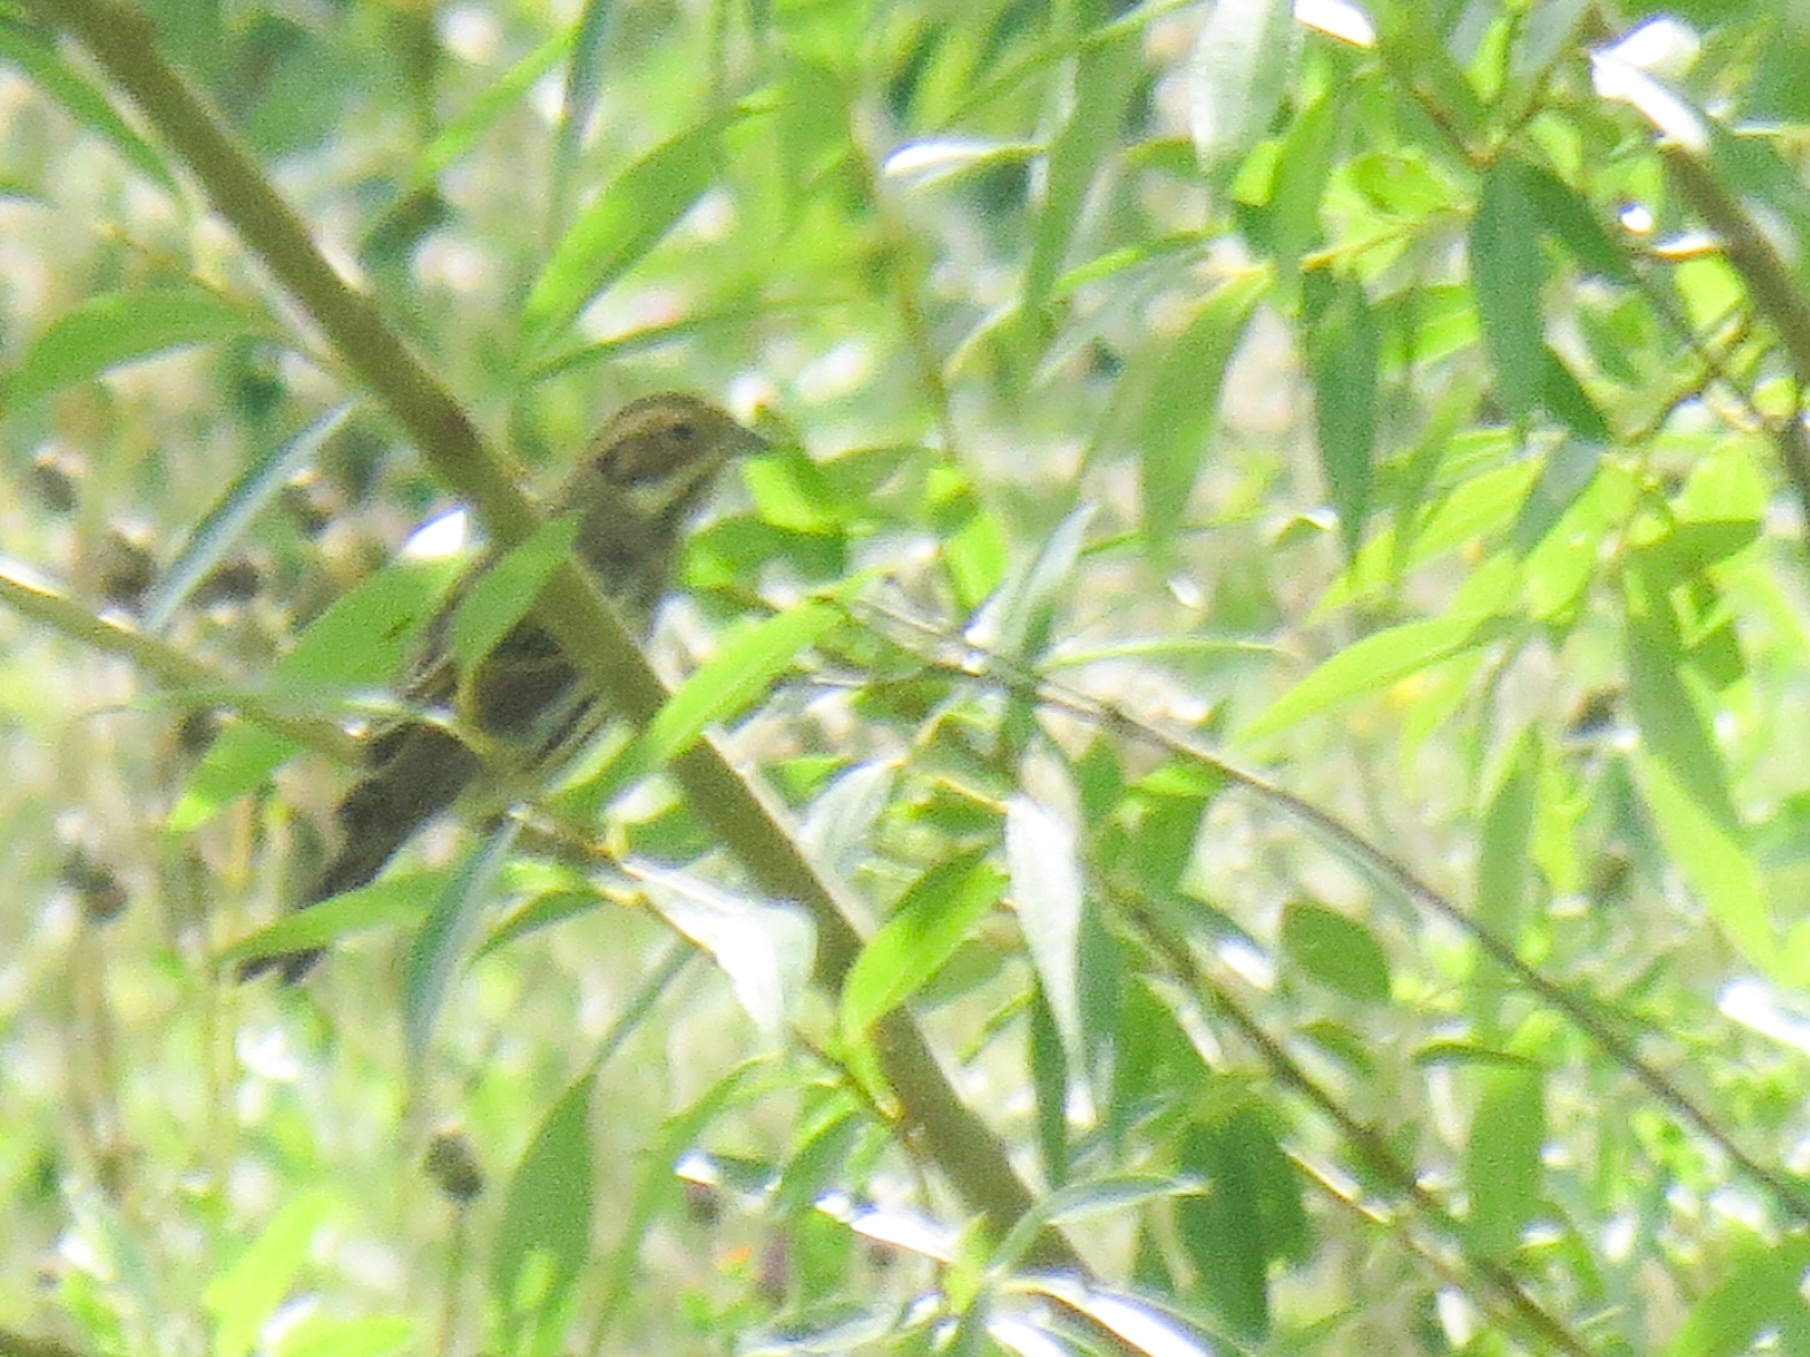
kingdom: Animalia
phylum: Chordata
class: Aves
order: Passeriformes
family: Emberizidae
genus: Emberiza
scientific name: Emberiza schoeniclus
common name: Reed bunting
